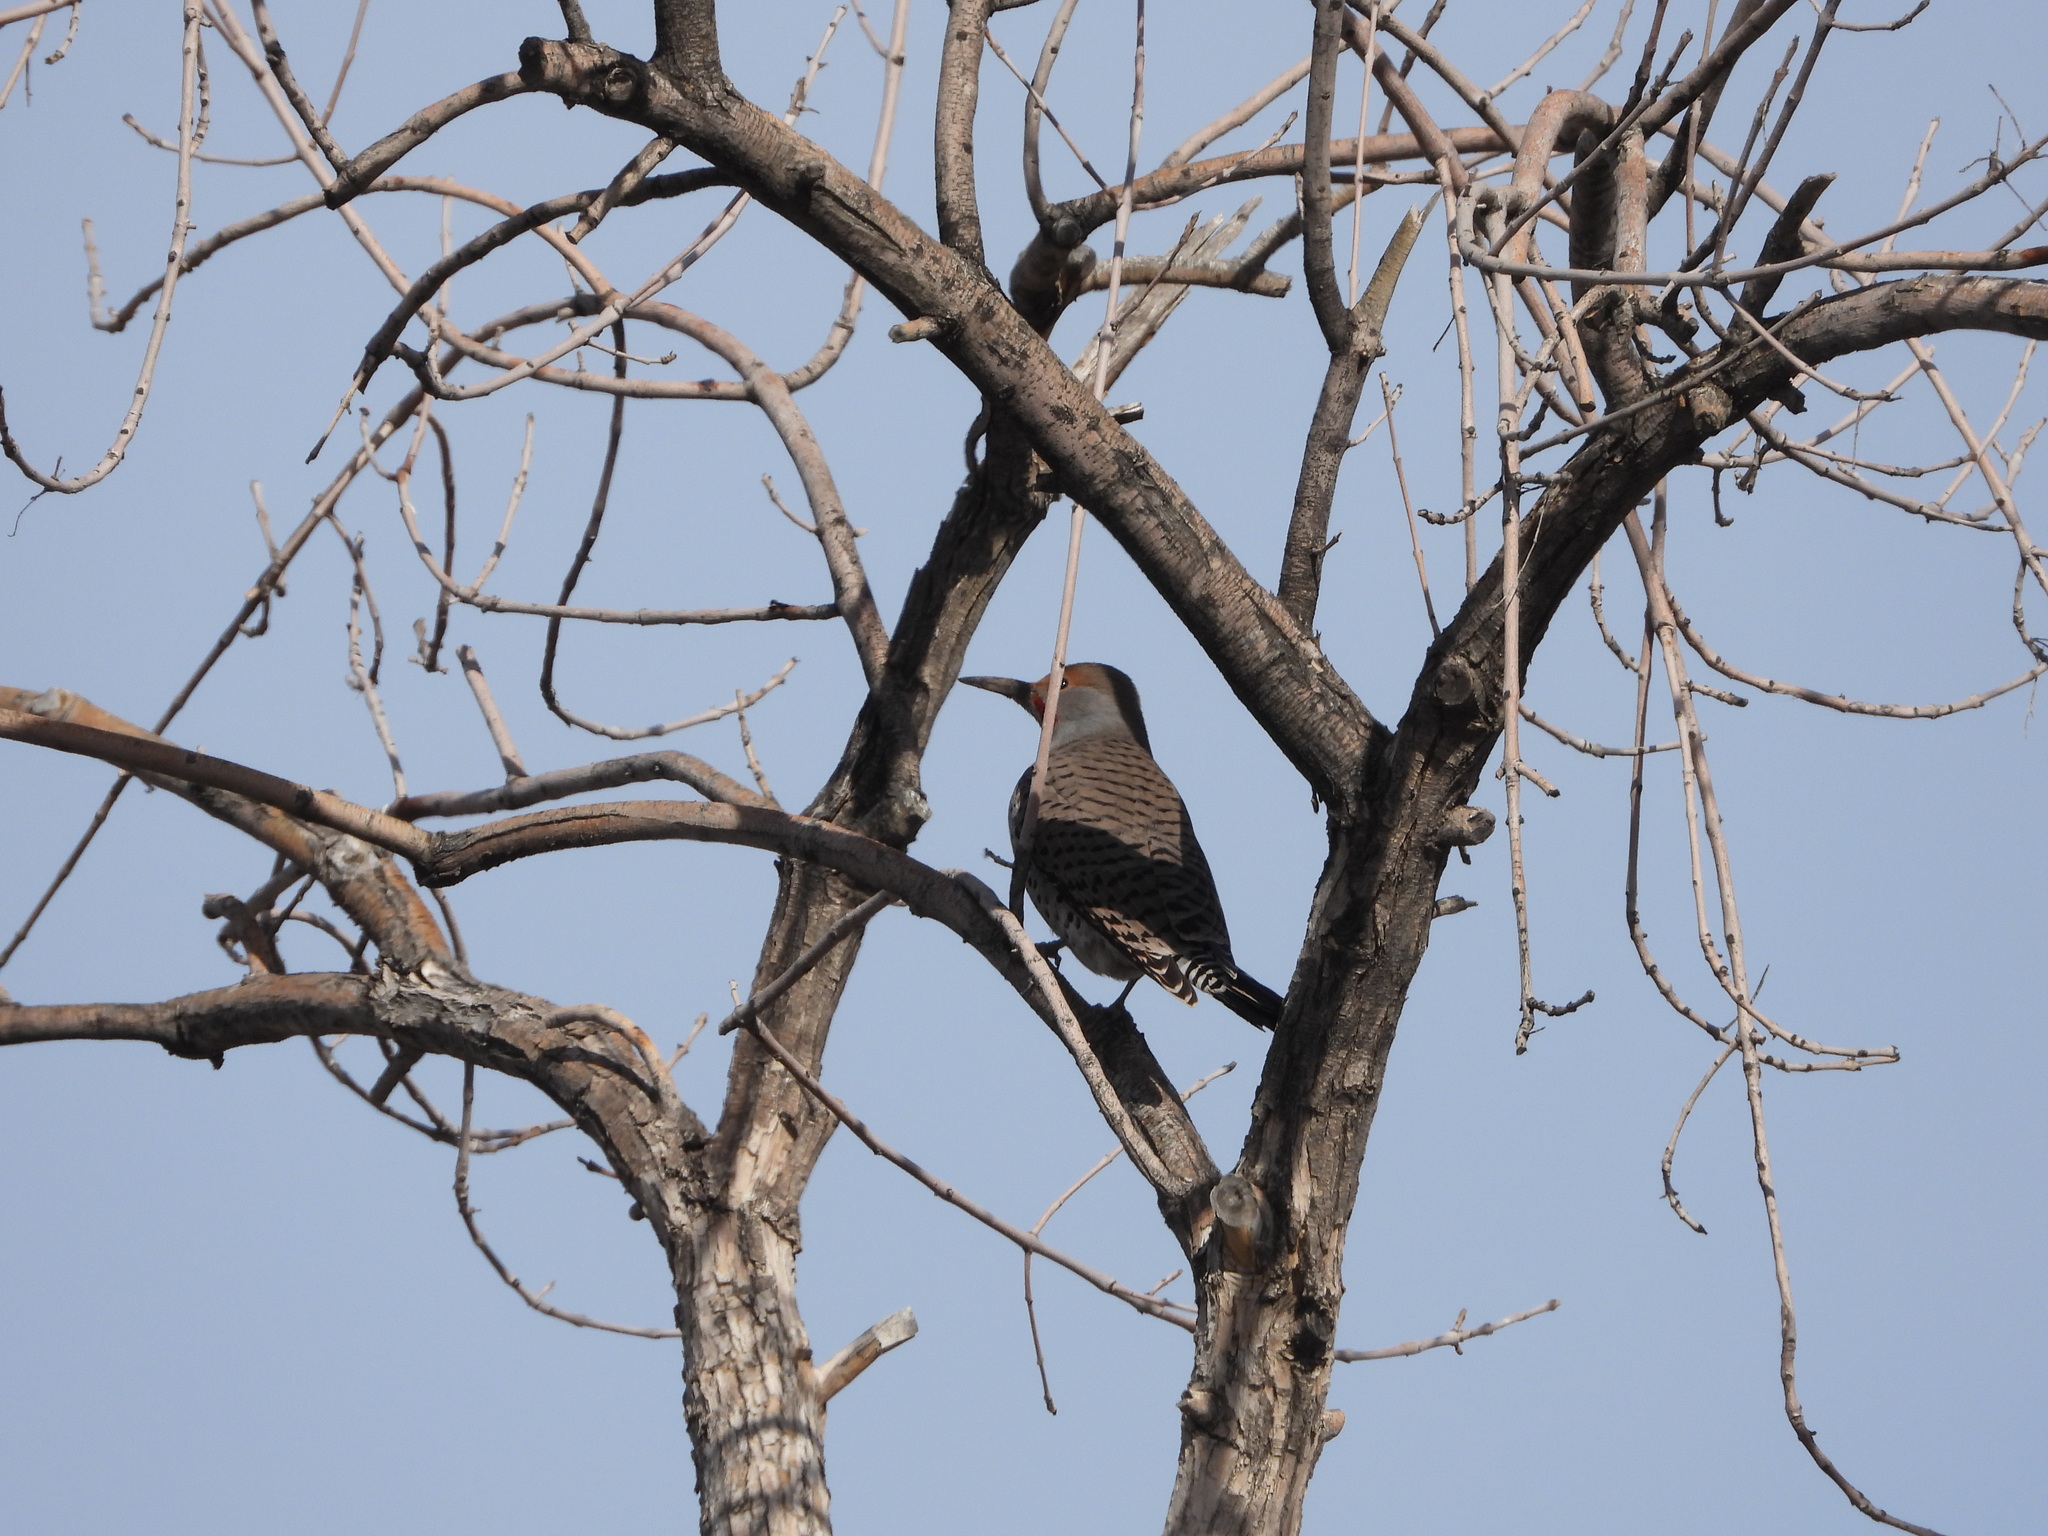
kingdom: Animalia
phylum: Chordata
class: Aves
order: Piciformes
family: Picidae
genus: Colaptes
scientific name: Colaptes auratus
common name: Northern flicker
